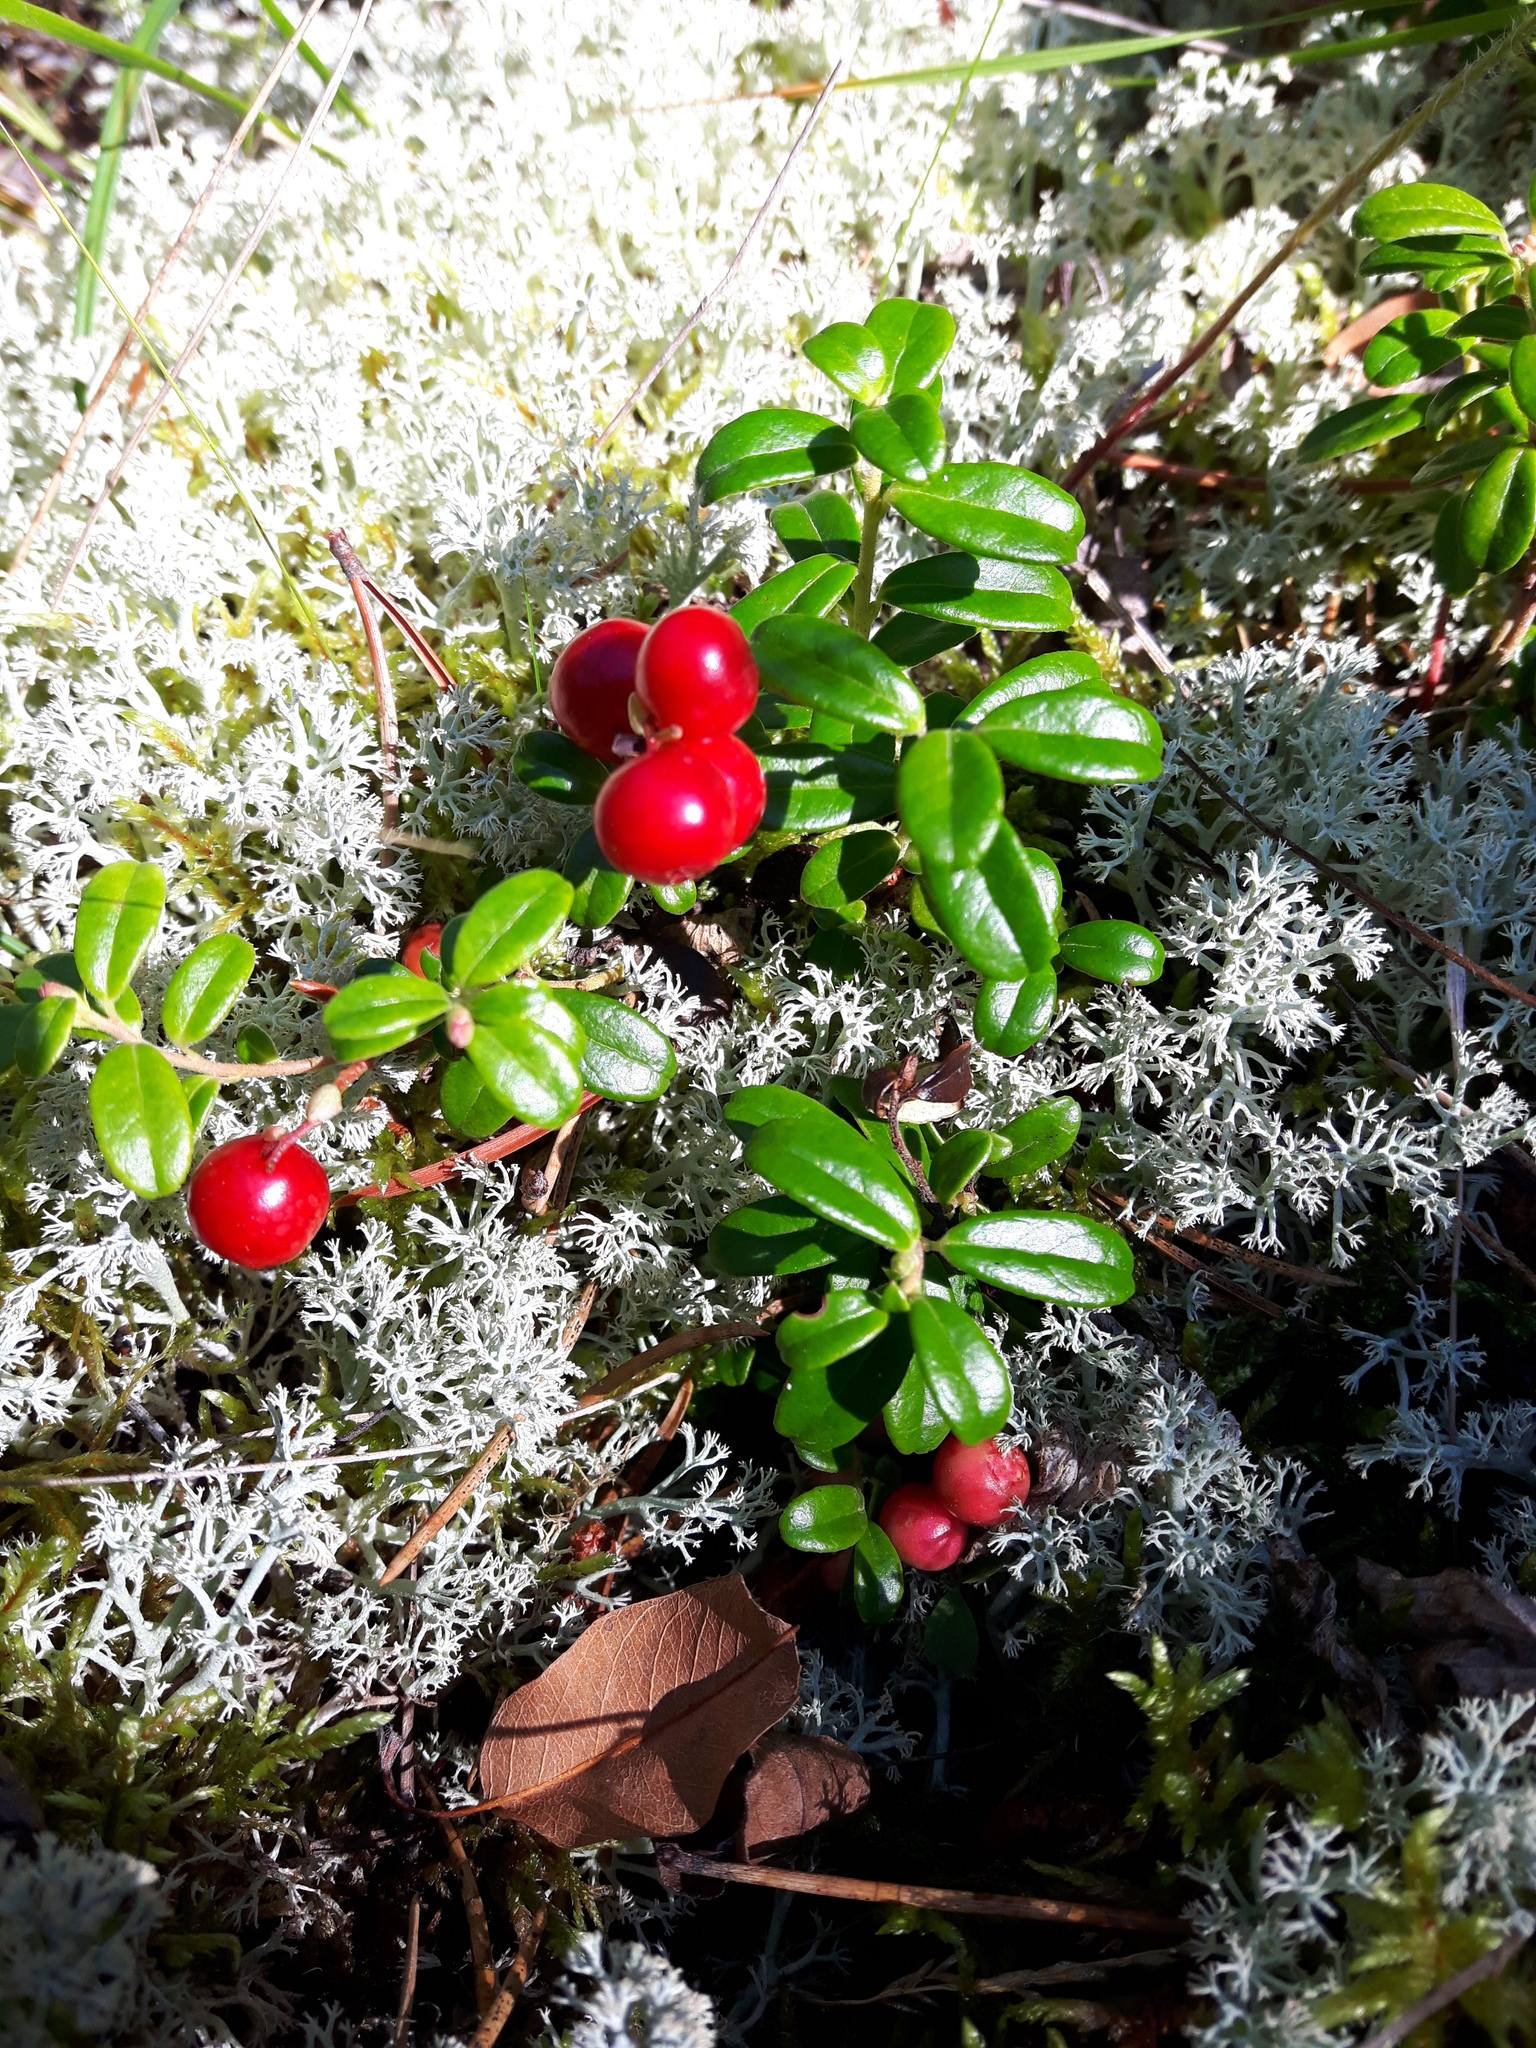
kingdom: Plantae
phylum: Tracheophyta
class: Magnoliopsida
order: Ericales
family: Ericaceae
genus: Vaccinium
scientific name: Vaccinium vitis-idaea
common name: Cowberry
